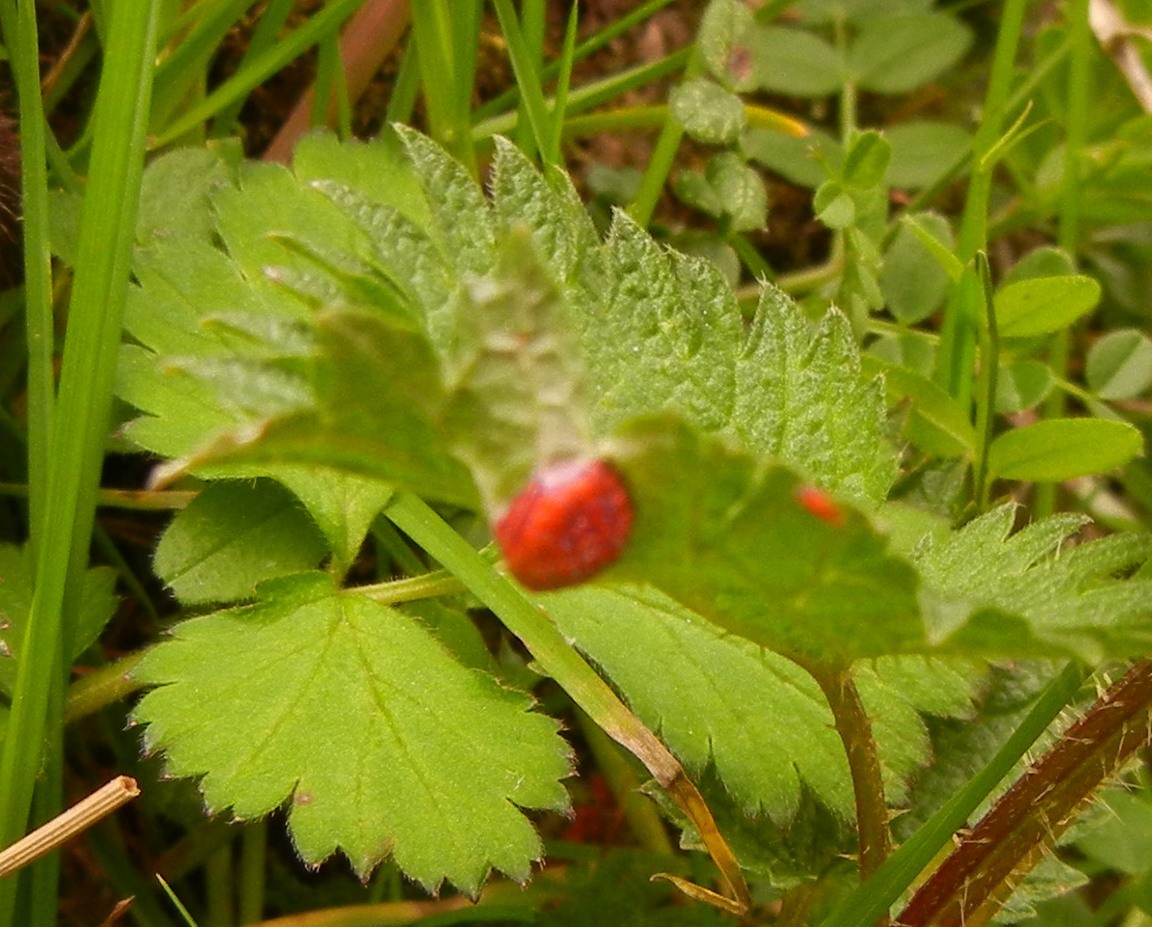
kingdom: Animalia
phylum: Arthropoda
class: Insecta
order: Diptera
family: Cecidomyiidae
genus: Dasineura
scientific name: Dasineura urticae
